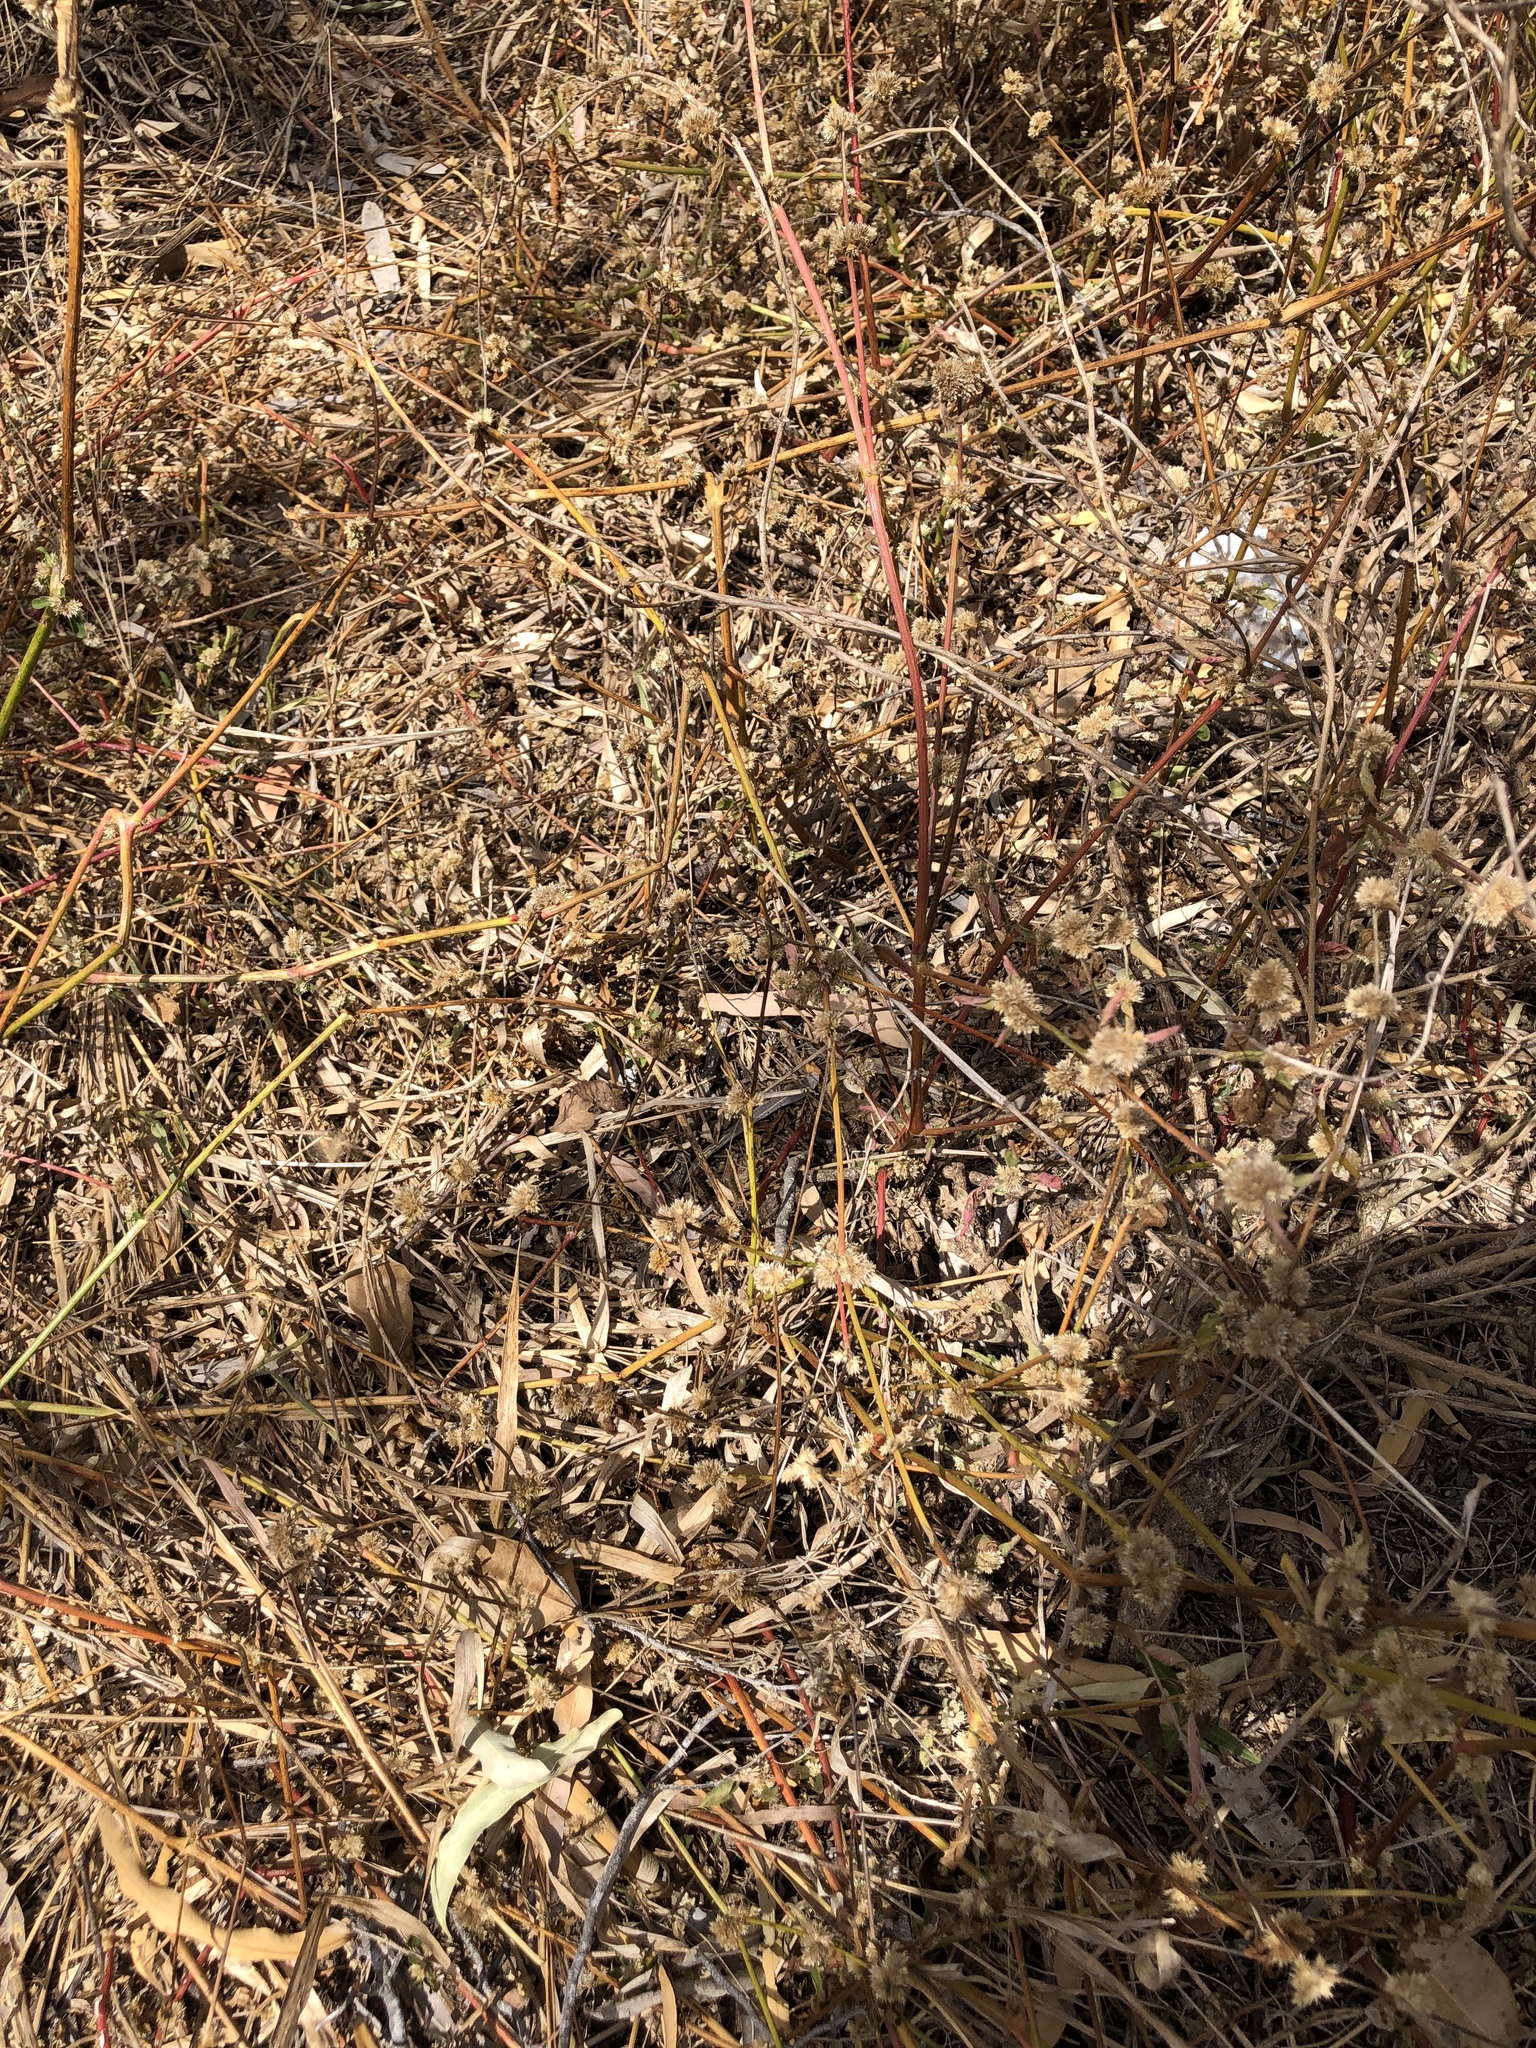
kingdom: Plantae
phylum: Tracheophyta
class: Magnoliopsida
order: Caryophyllales
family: Amaranthaceae
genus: Alternanthera
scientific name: Alternanthera ficoidea
